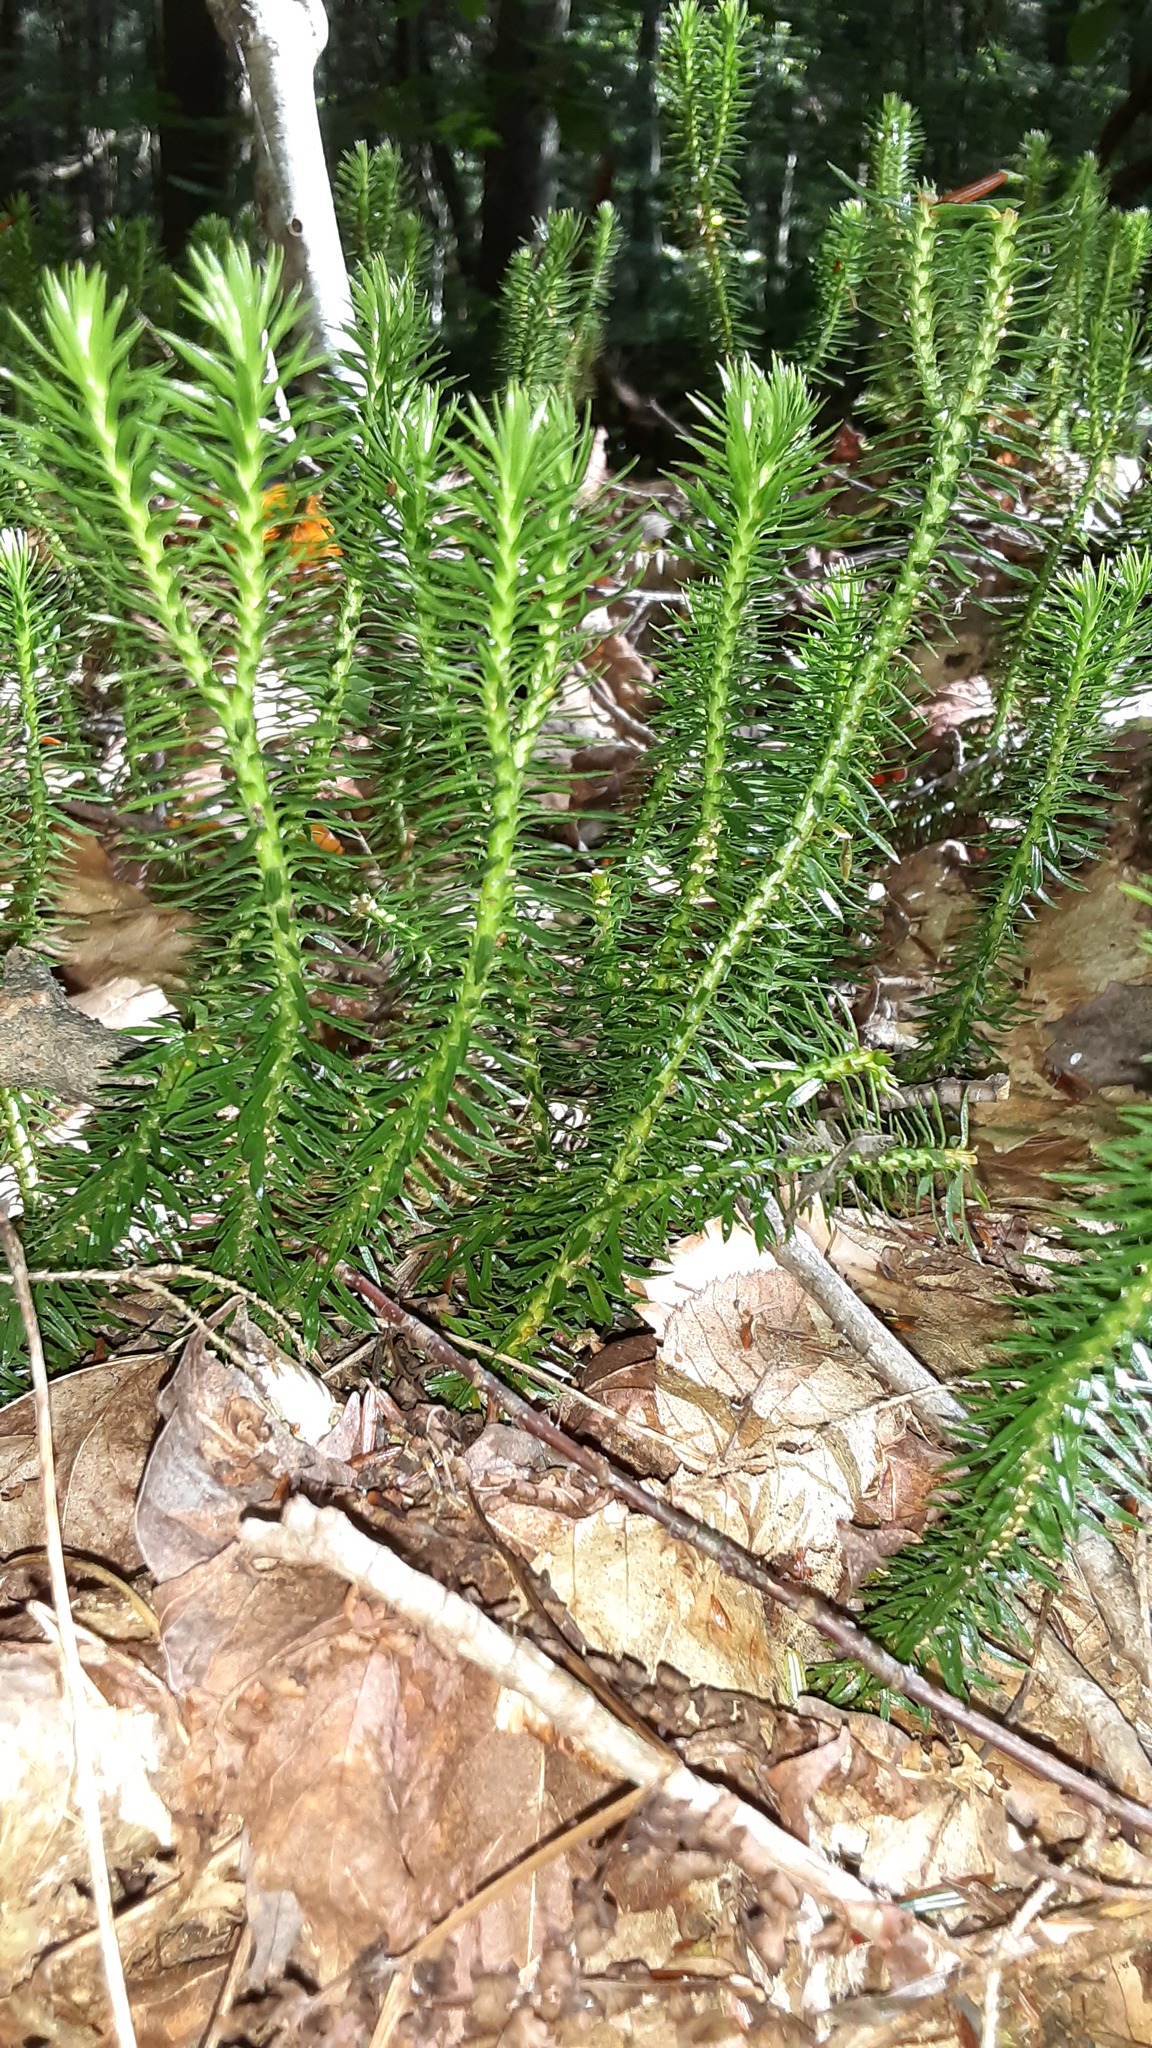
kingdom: Plantae
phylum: Tracheophyta
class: Lycopodiopsida
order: Lycopodiales
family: Lycopodiaceae
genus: Huperzia
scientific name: Huperzia lucidula
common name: Shining clubmoss
